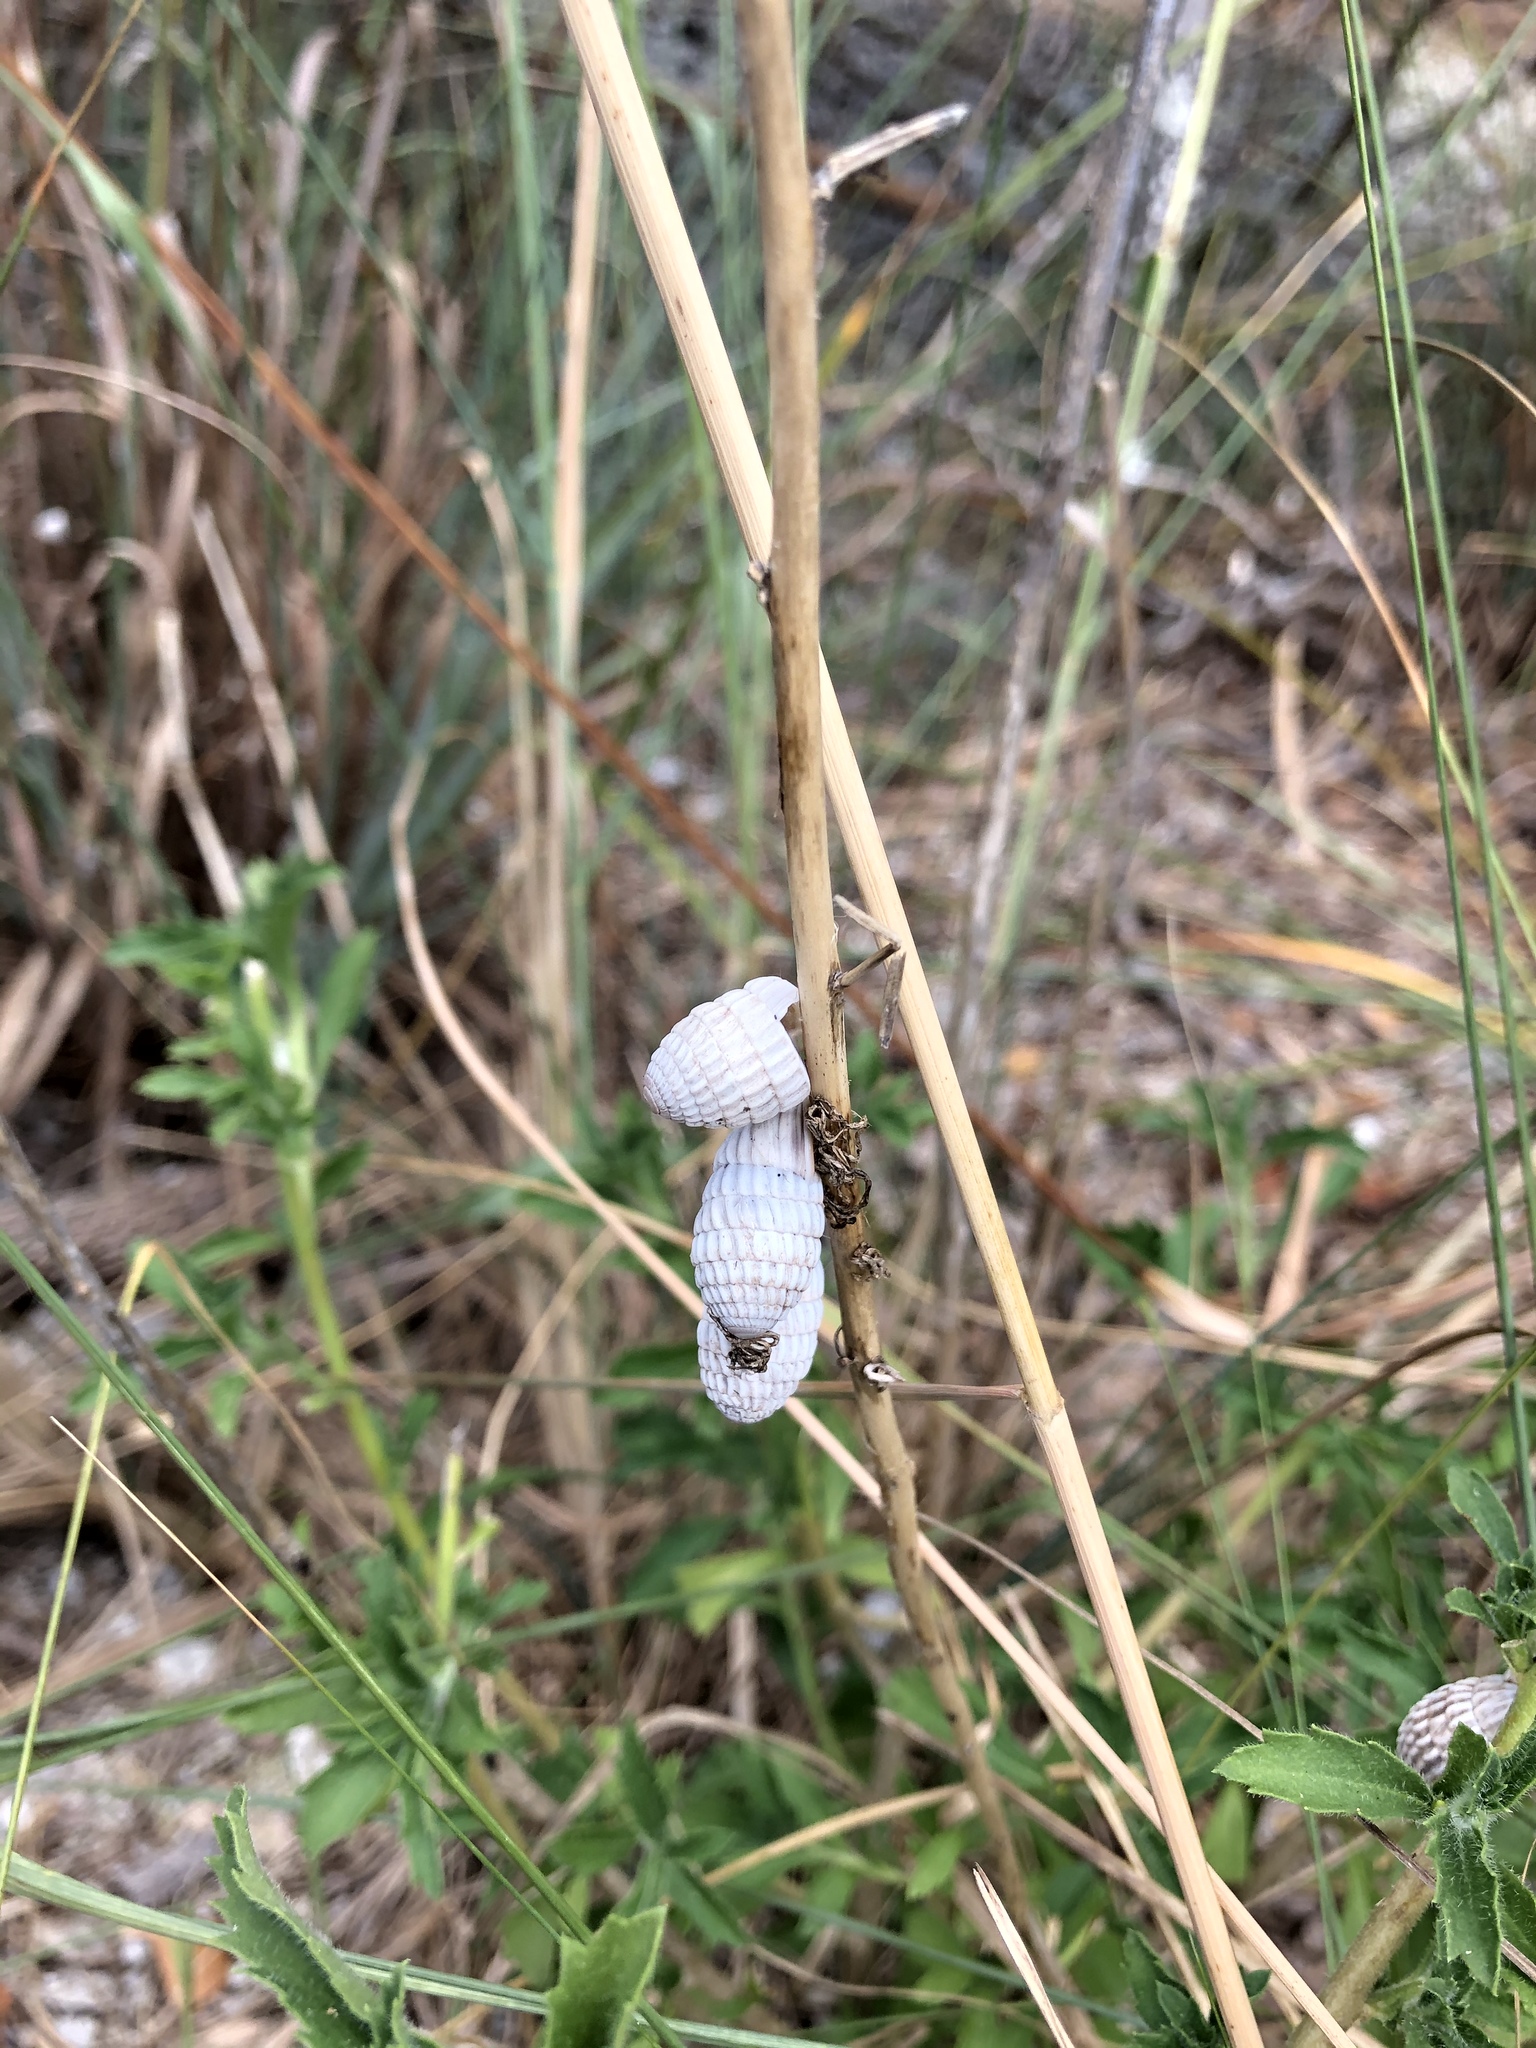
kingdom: Animalia
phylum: Mollusca
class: Gastropoda
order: Stylommatophora
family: Cerionidae
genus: Cerion
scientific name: Cerion uva
